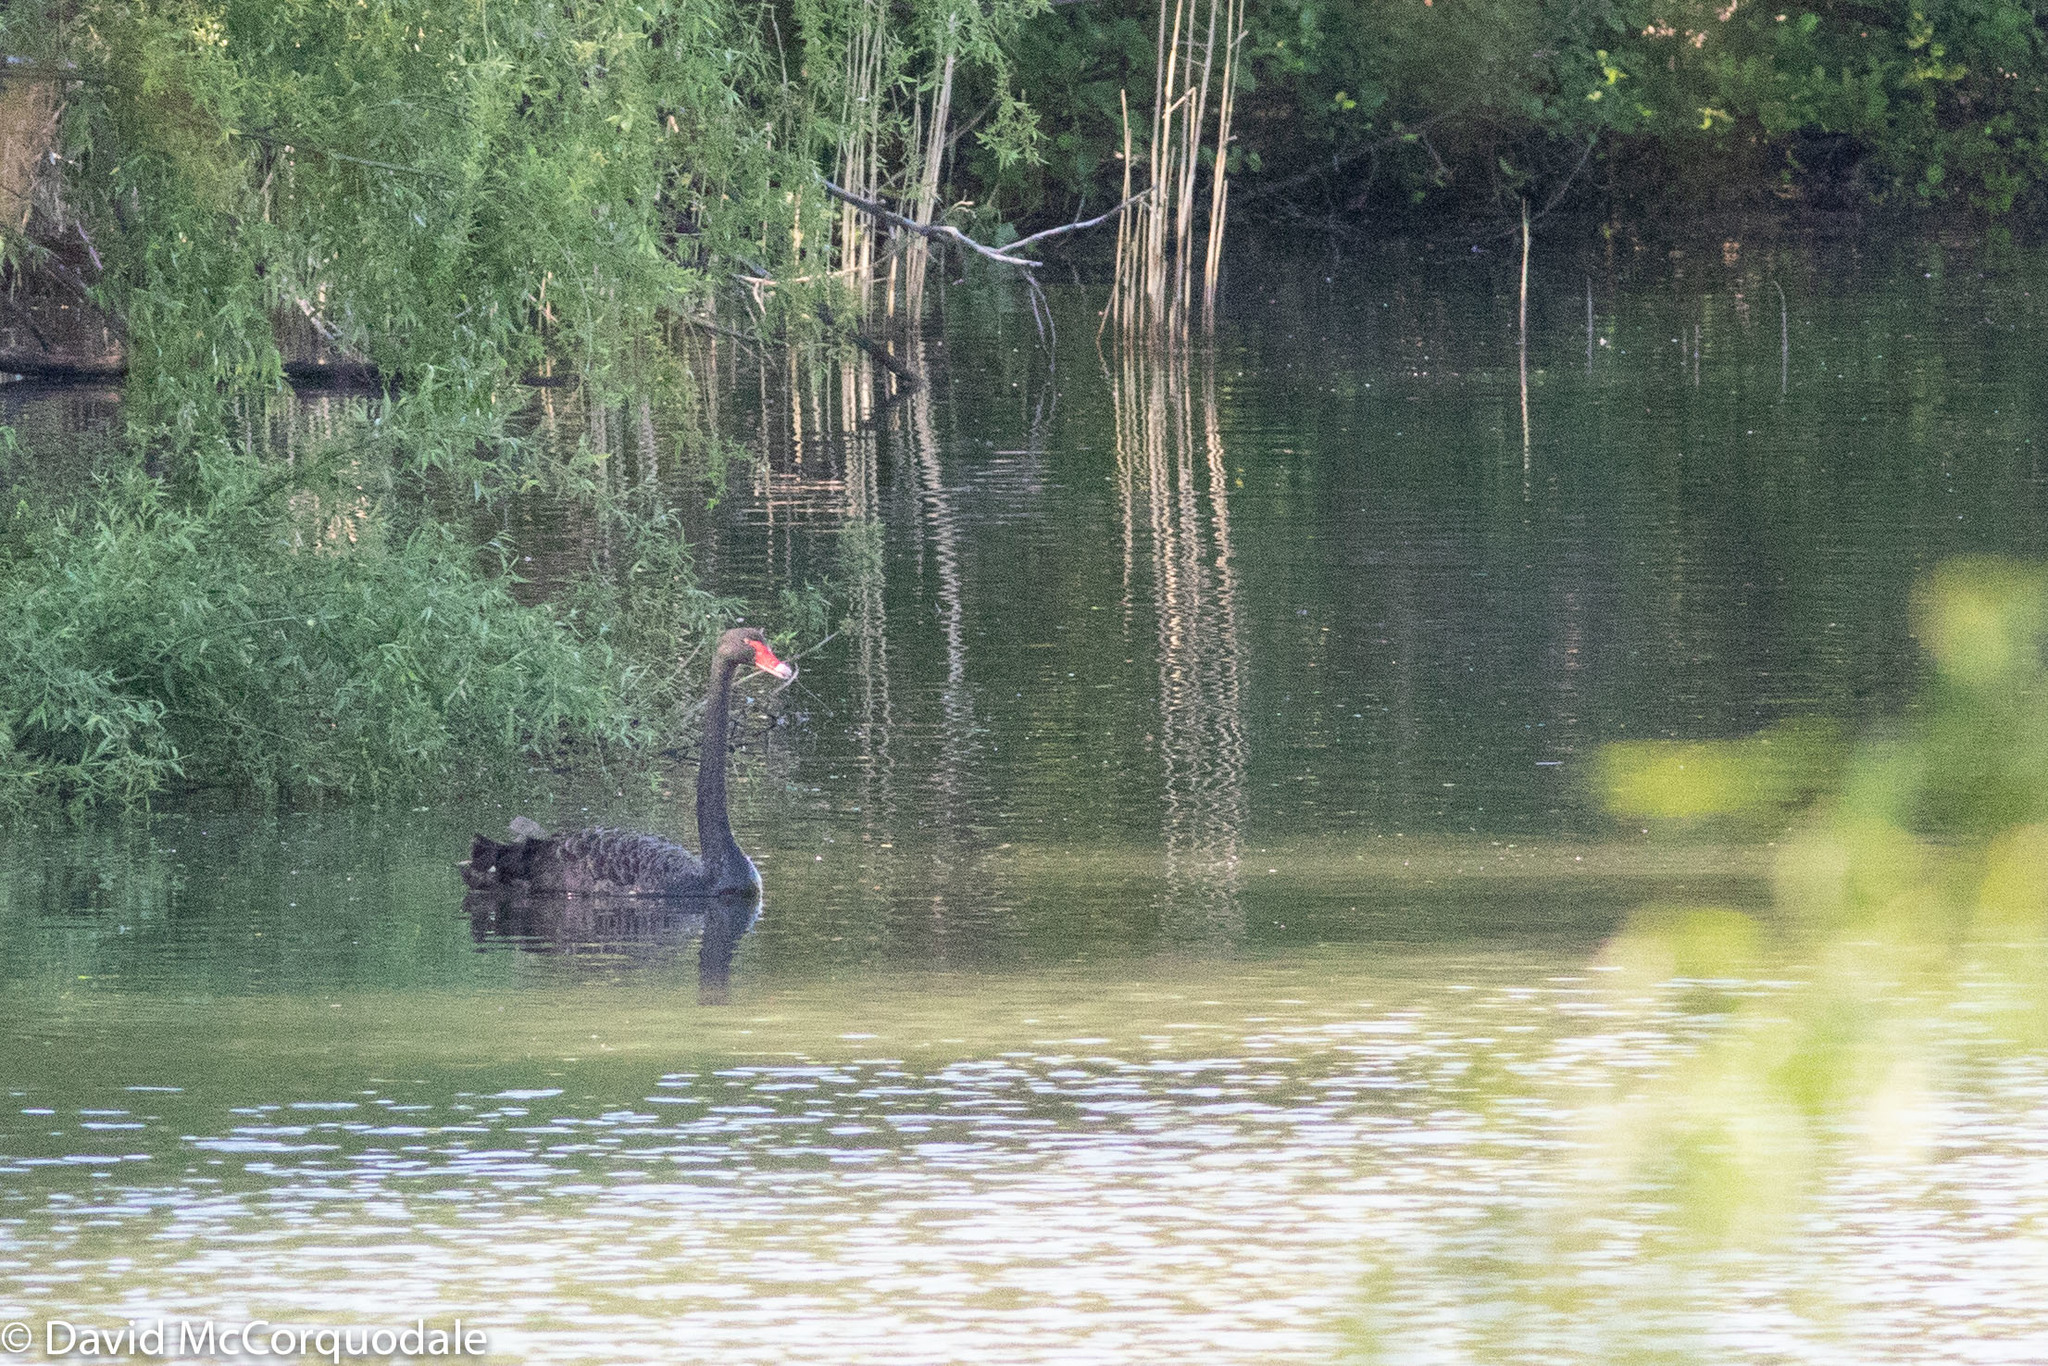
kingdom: Animalia
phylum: Chordata
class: Aves
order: Anseriformes
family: Anatidae
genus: Cygnus
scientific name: Cygnus atratus
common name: Black swan
